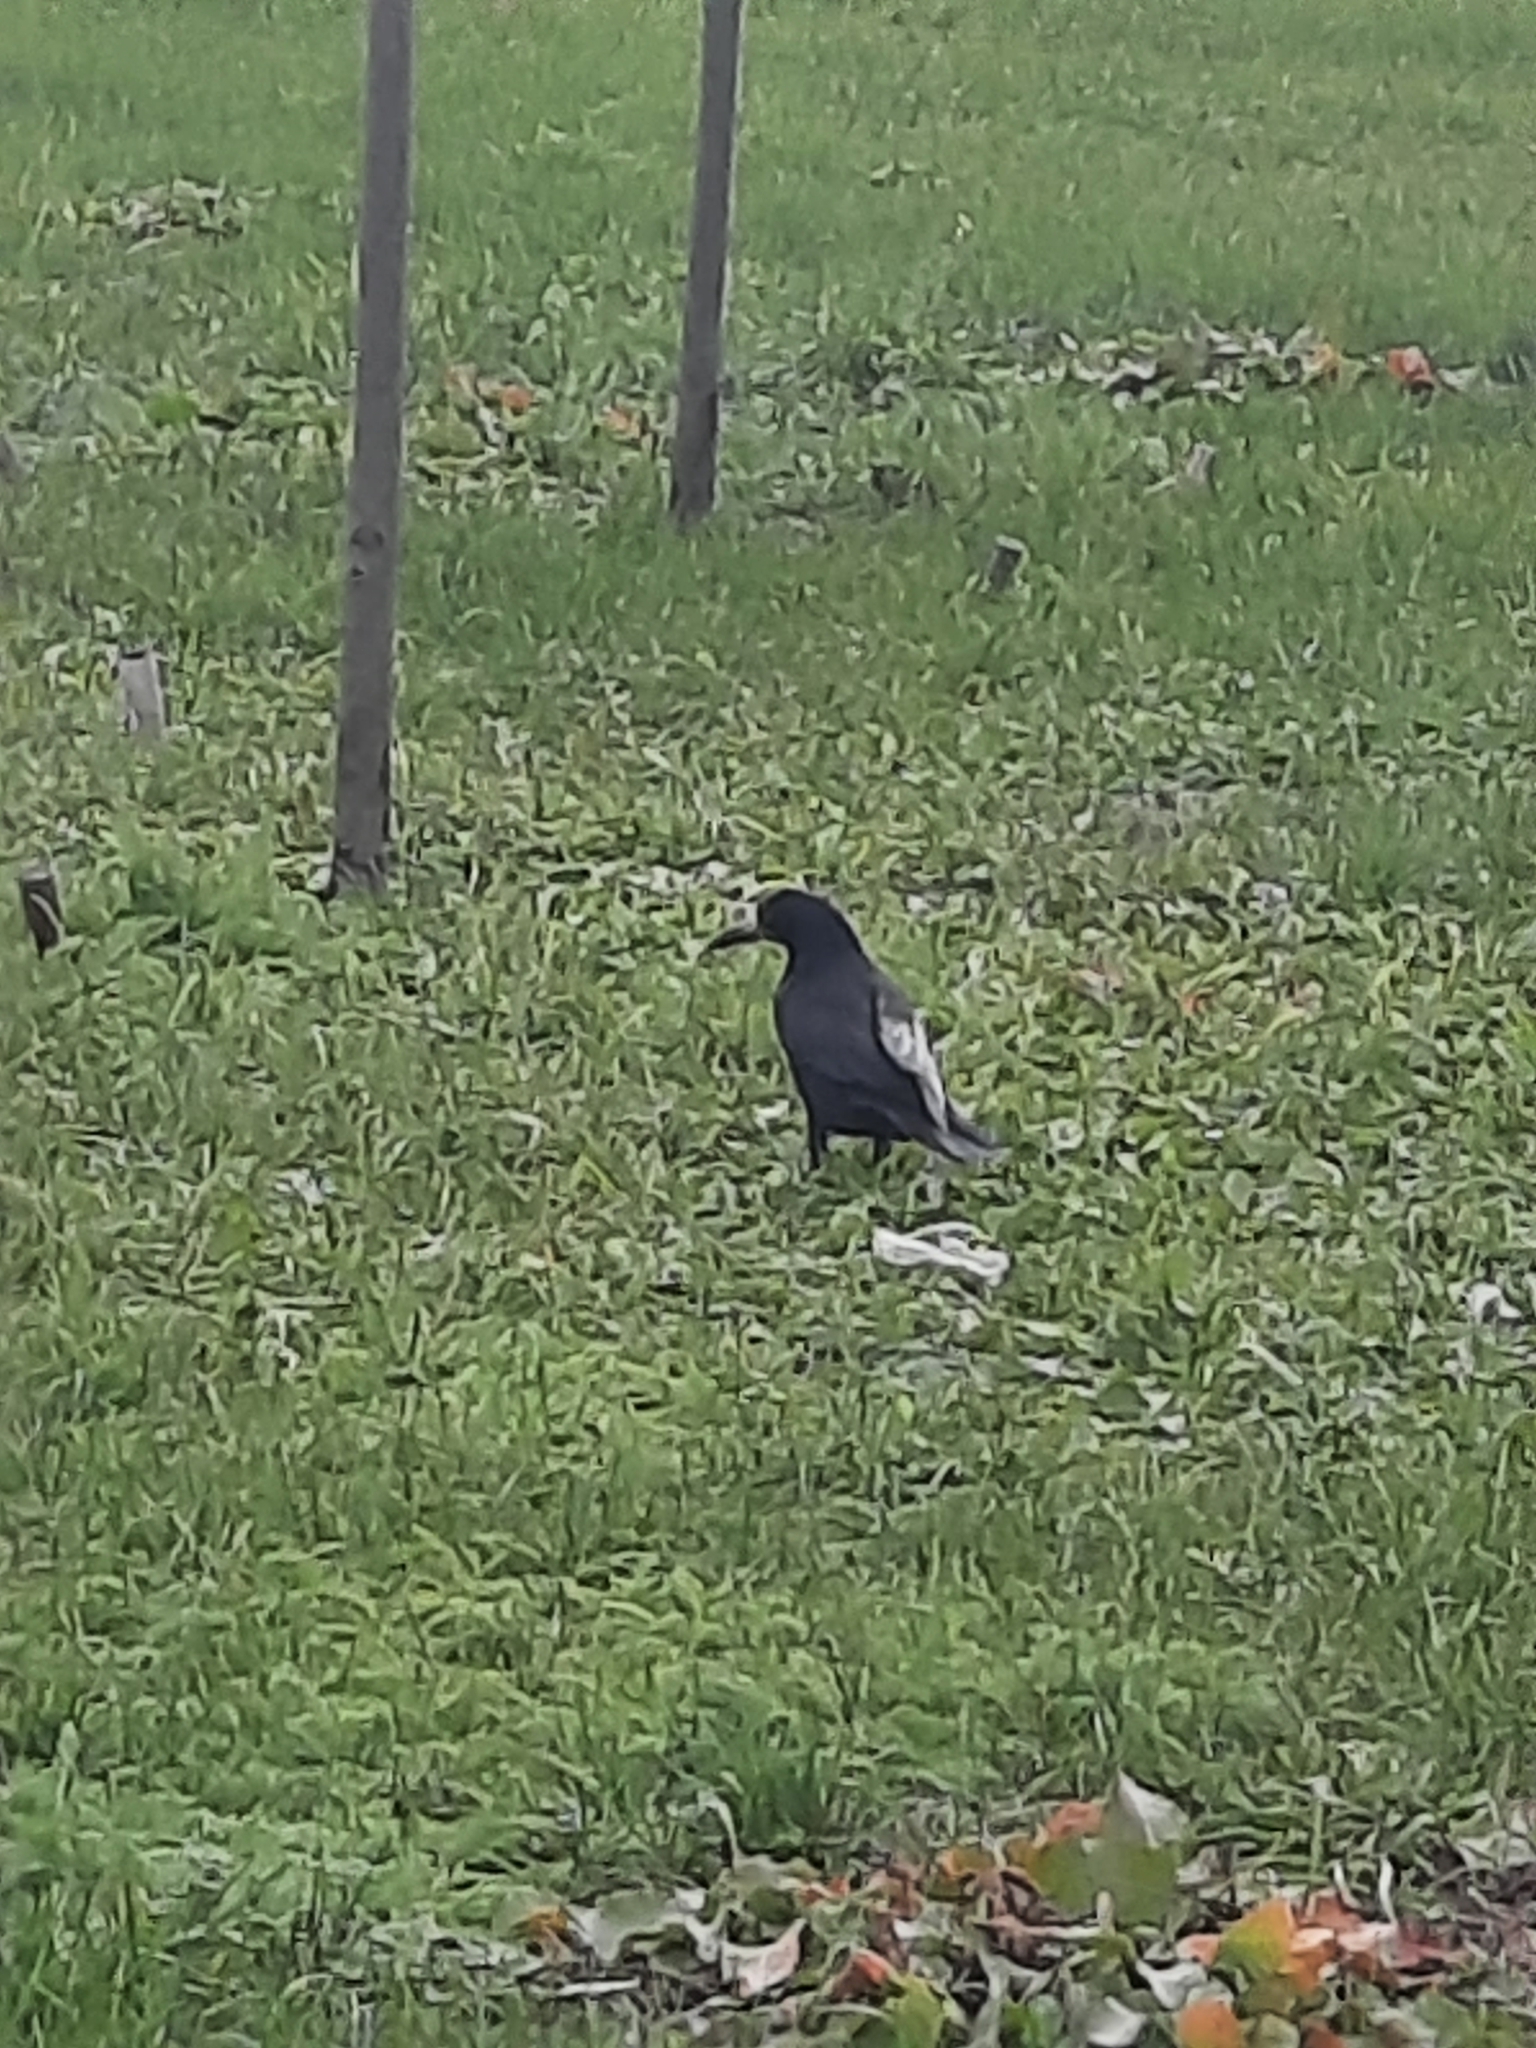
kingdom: Animalia
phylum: Chordata
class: Aves
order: Passeriformes
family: Corvidae
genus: Corvus
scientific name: Corvus frugilegus
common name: Rook
